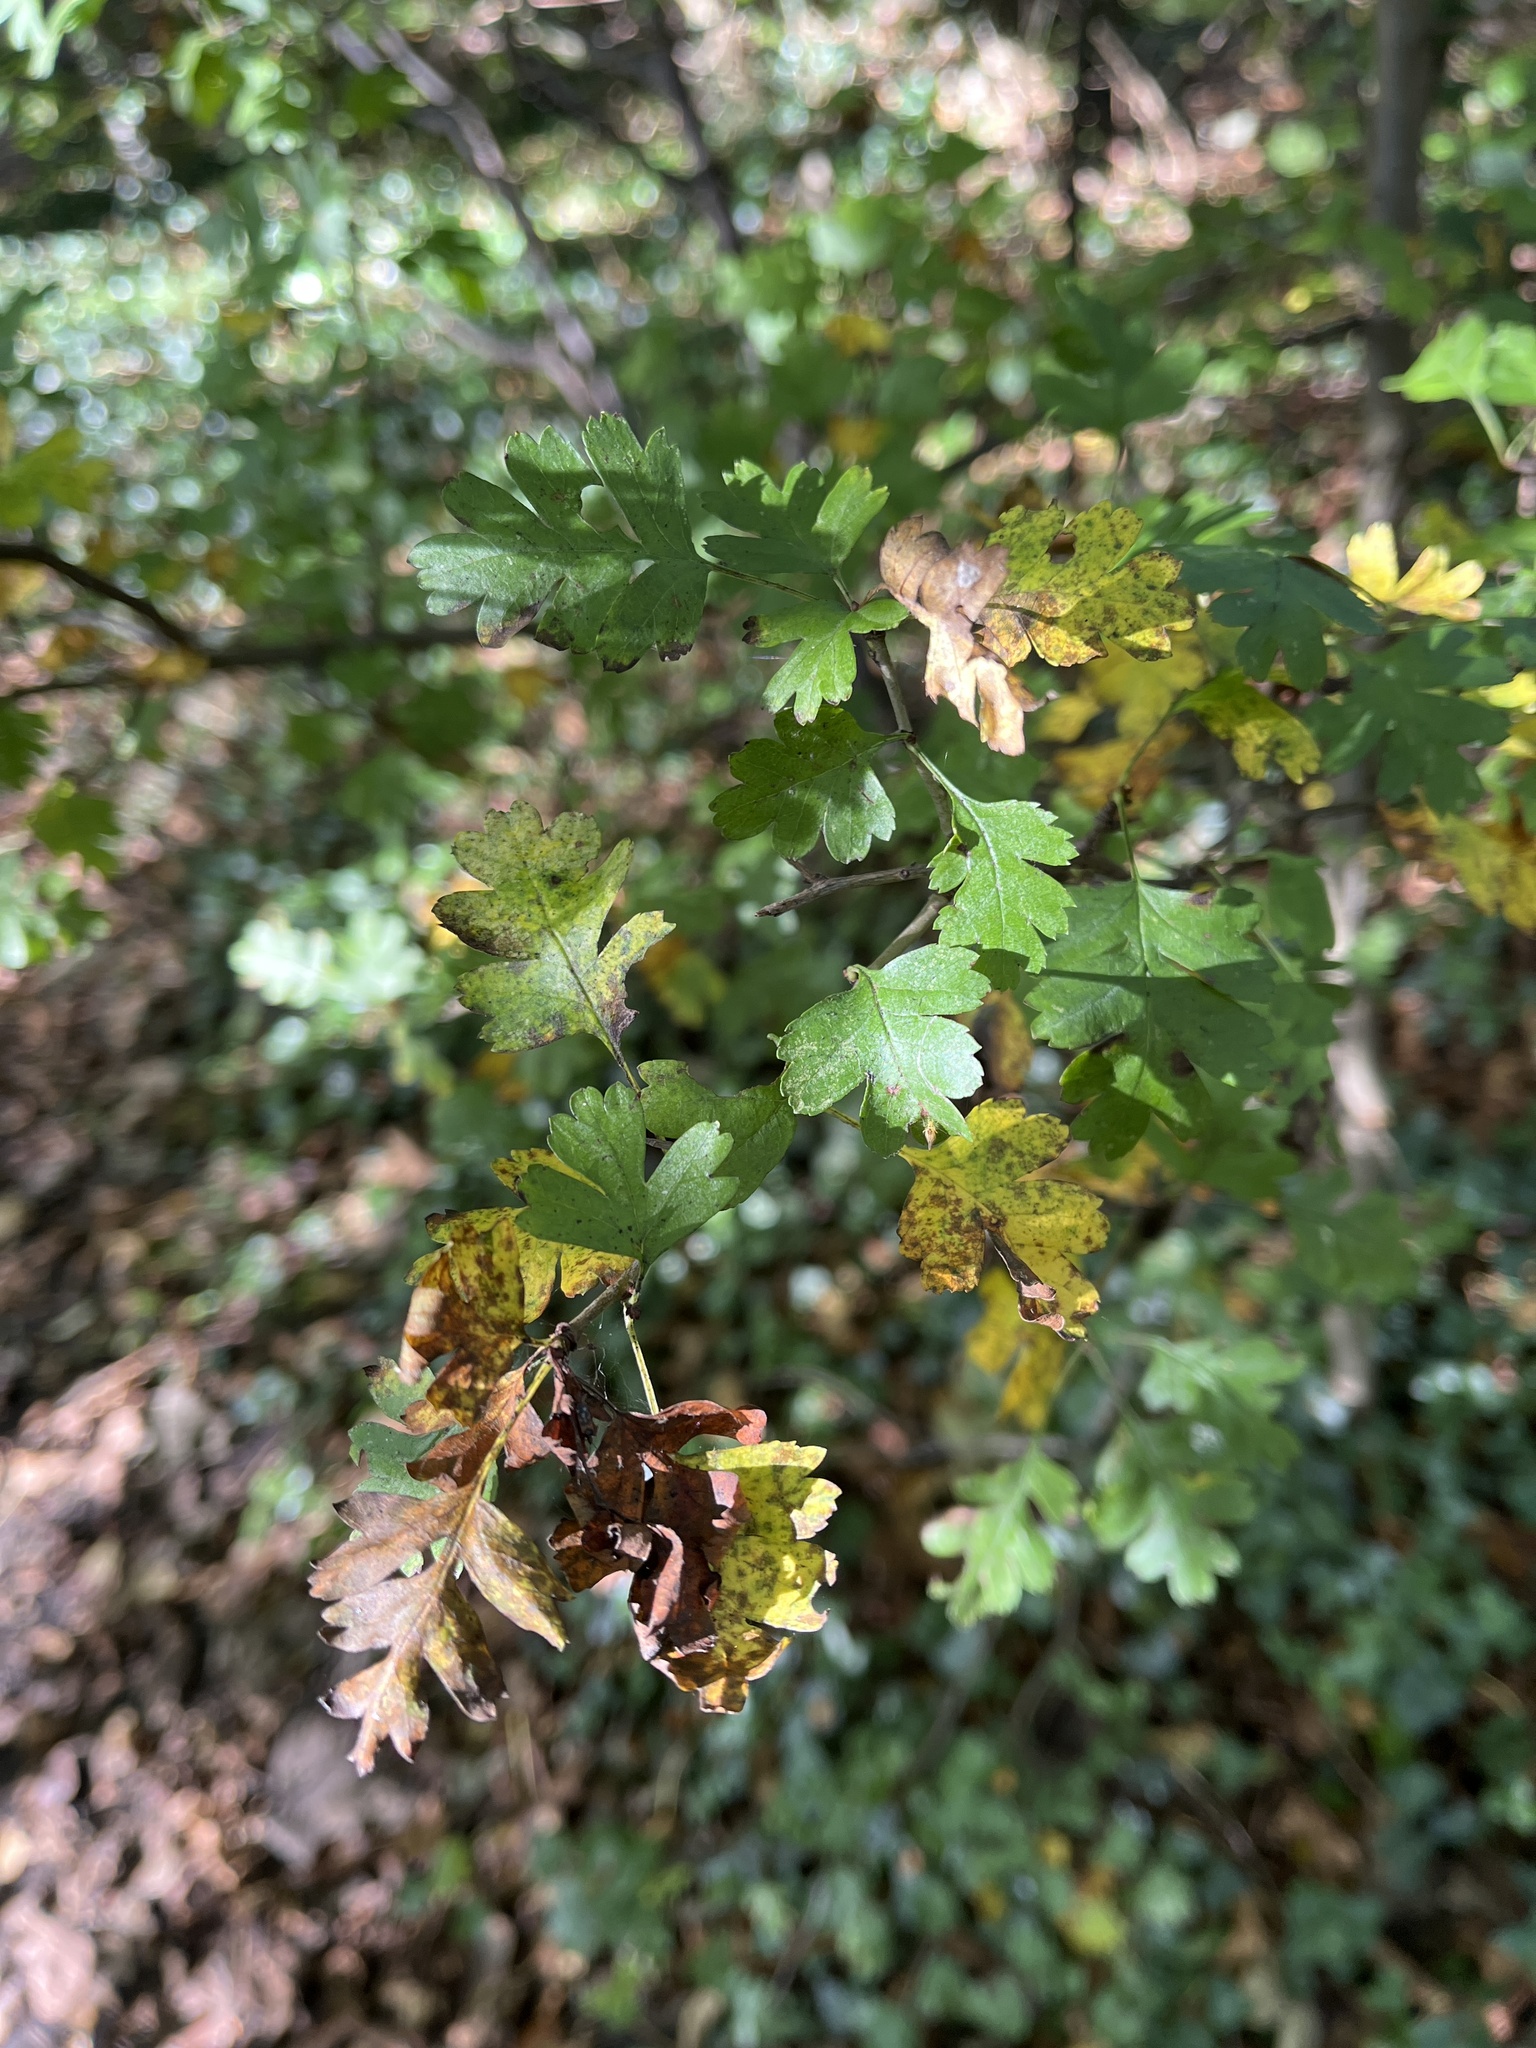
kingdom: Plantae
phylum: Tracheophyta
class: Magnoliopsida
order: Rosales
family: Rosaceae
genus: Crataegus
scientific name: Crataegus monogyna
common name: Hawthorn
